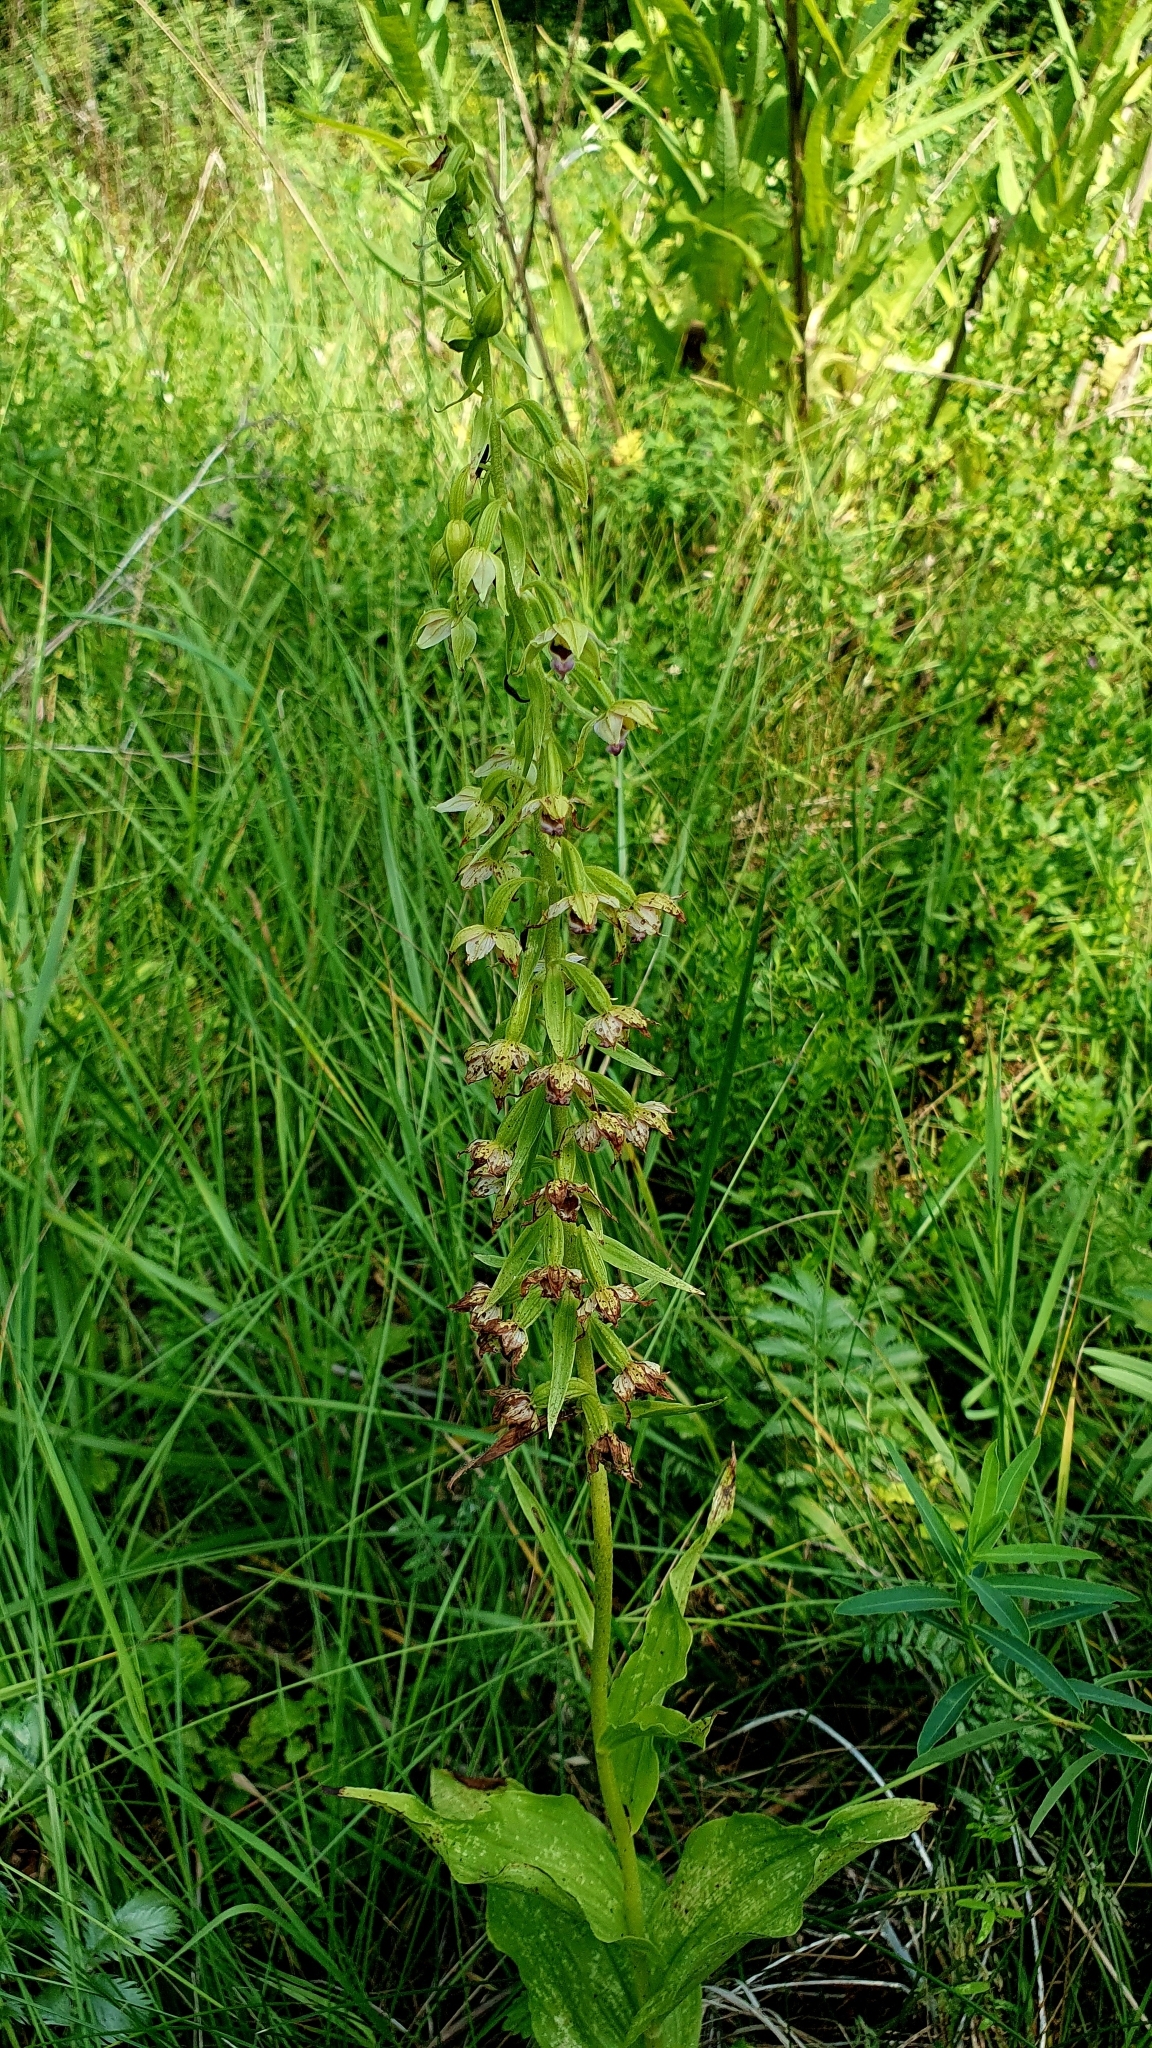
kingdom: Plantae
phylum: Tracheophyta
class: Liliopsida
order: Asparagales
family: Orchidaceae
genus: Epipactis
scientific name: Epipactis helleborine
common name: Broad-leaved helleborine
